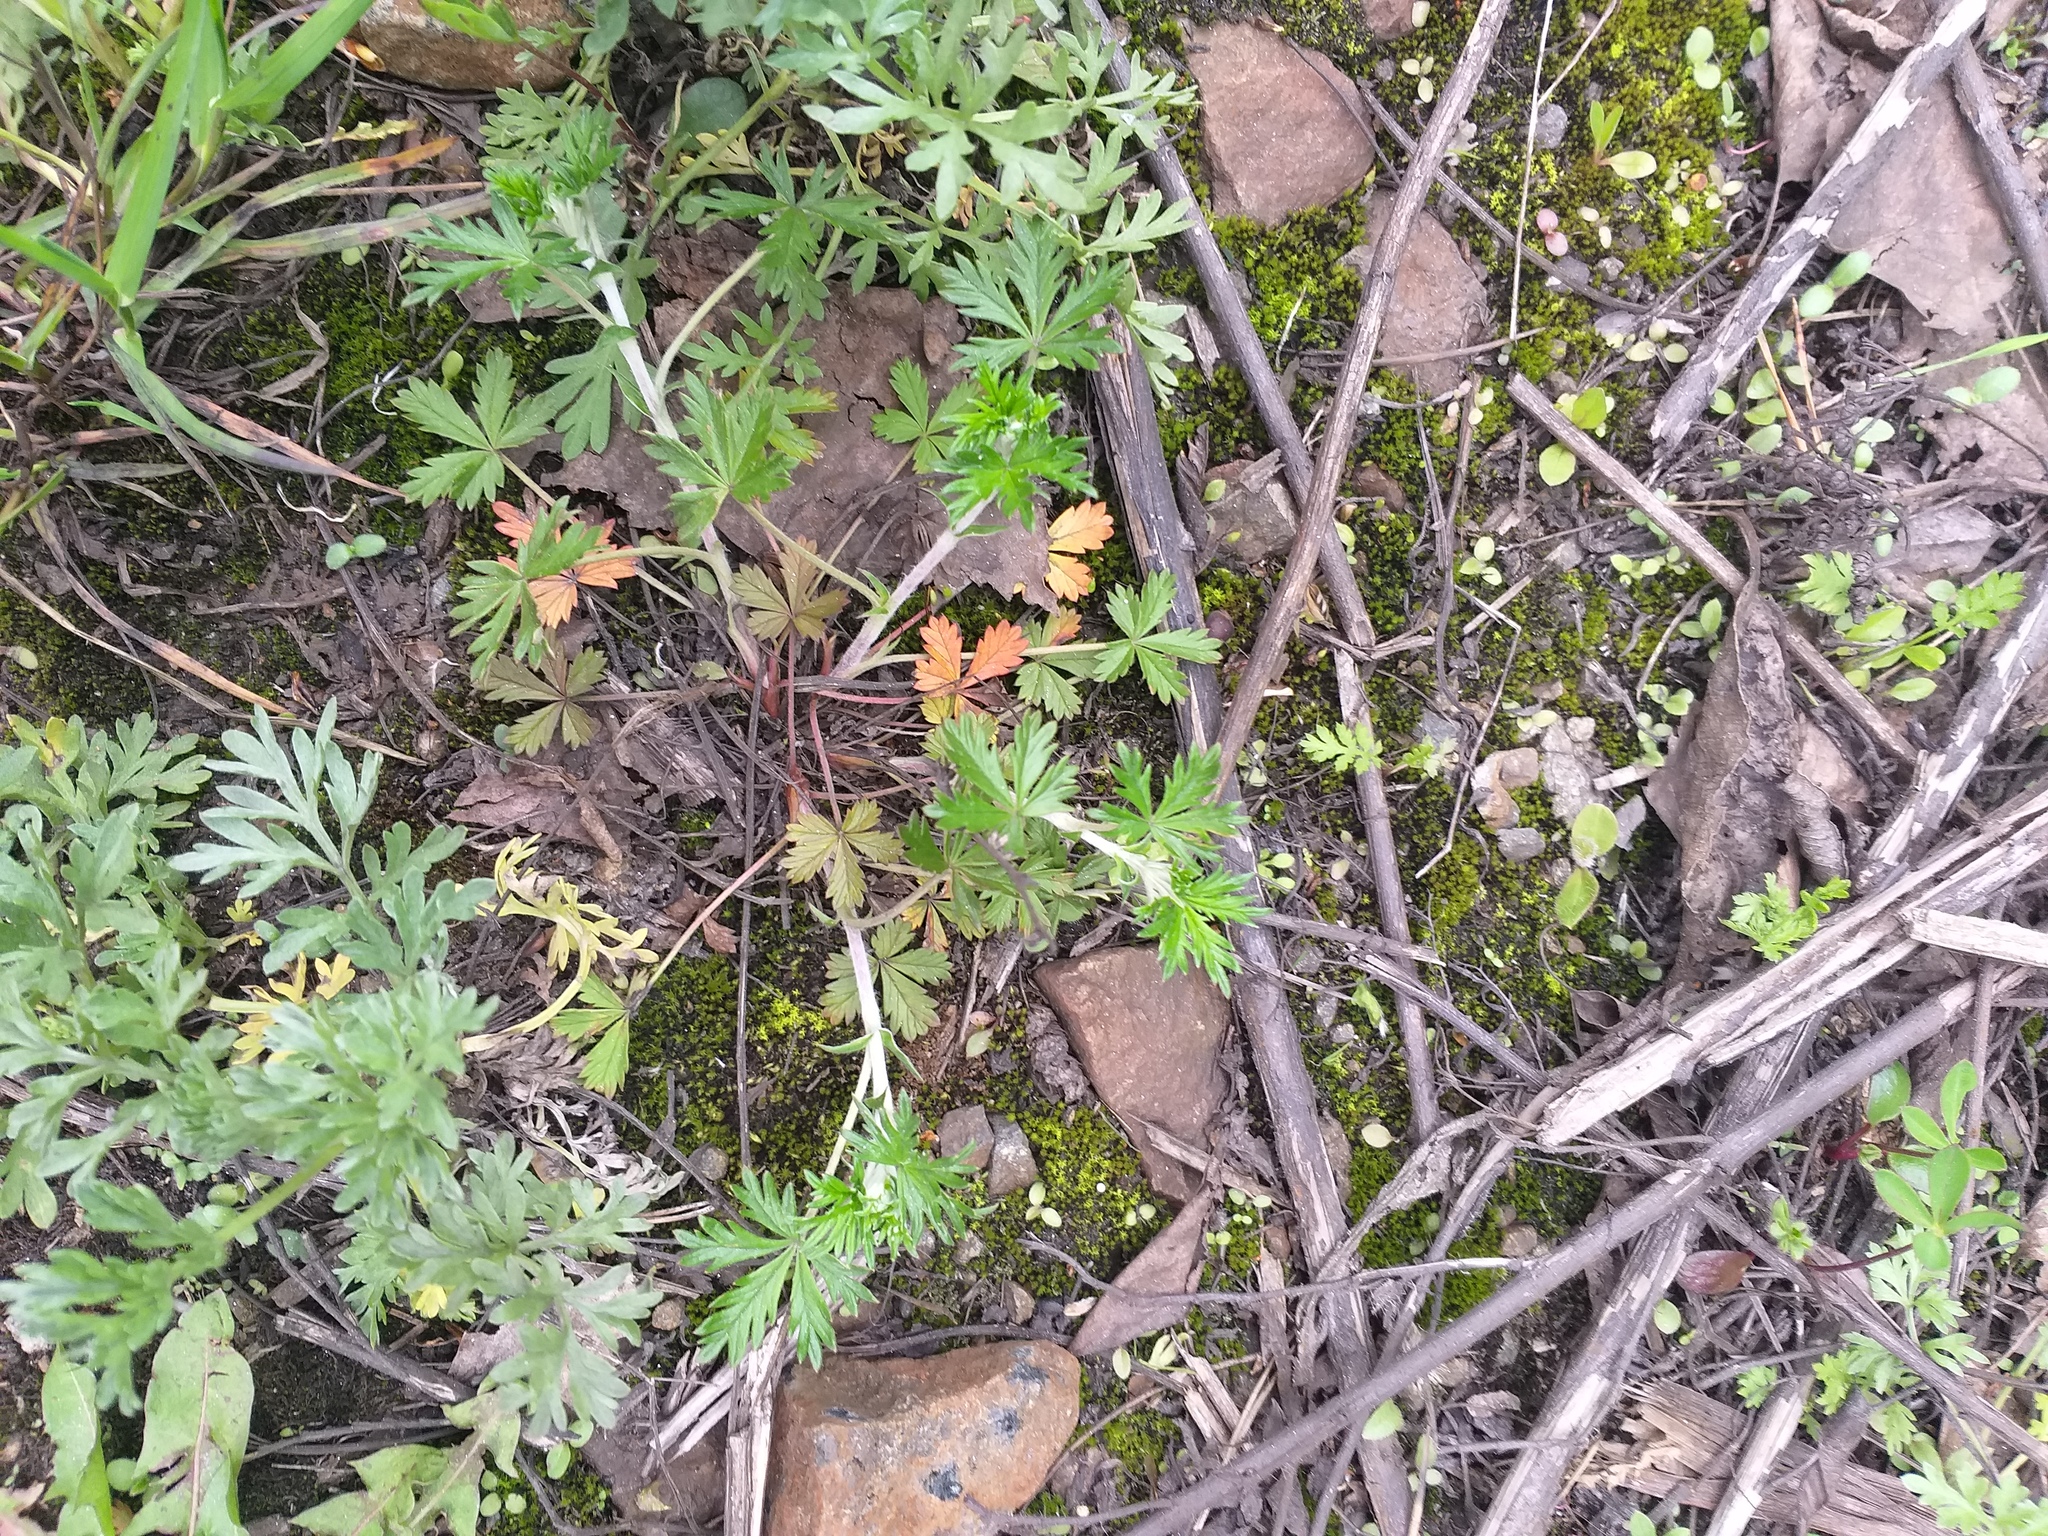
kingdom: Plantae
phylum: Tracheophyta
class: Magnoliopsida
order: Rosales
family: Rosaceae
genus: Potentilla
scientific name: Potentilla argentea
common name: Hoary cinquefoil
